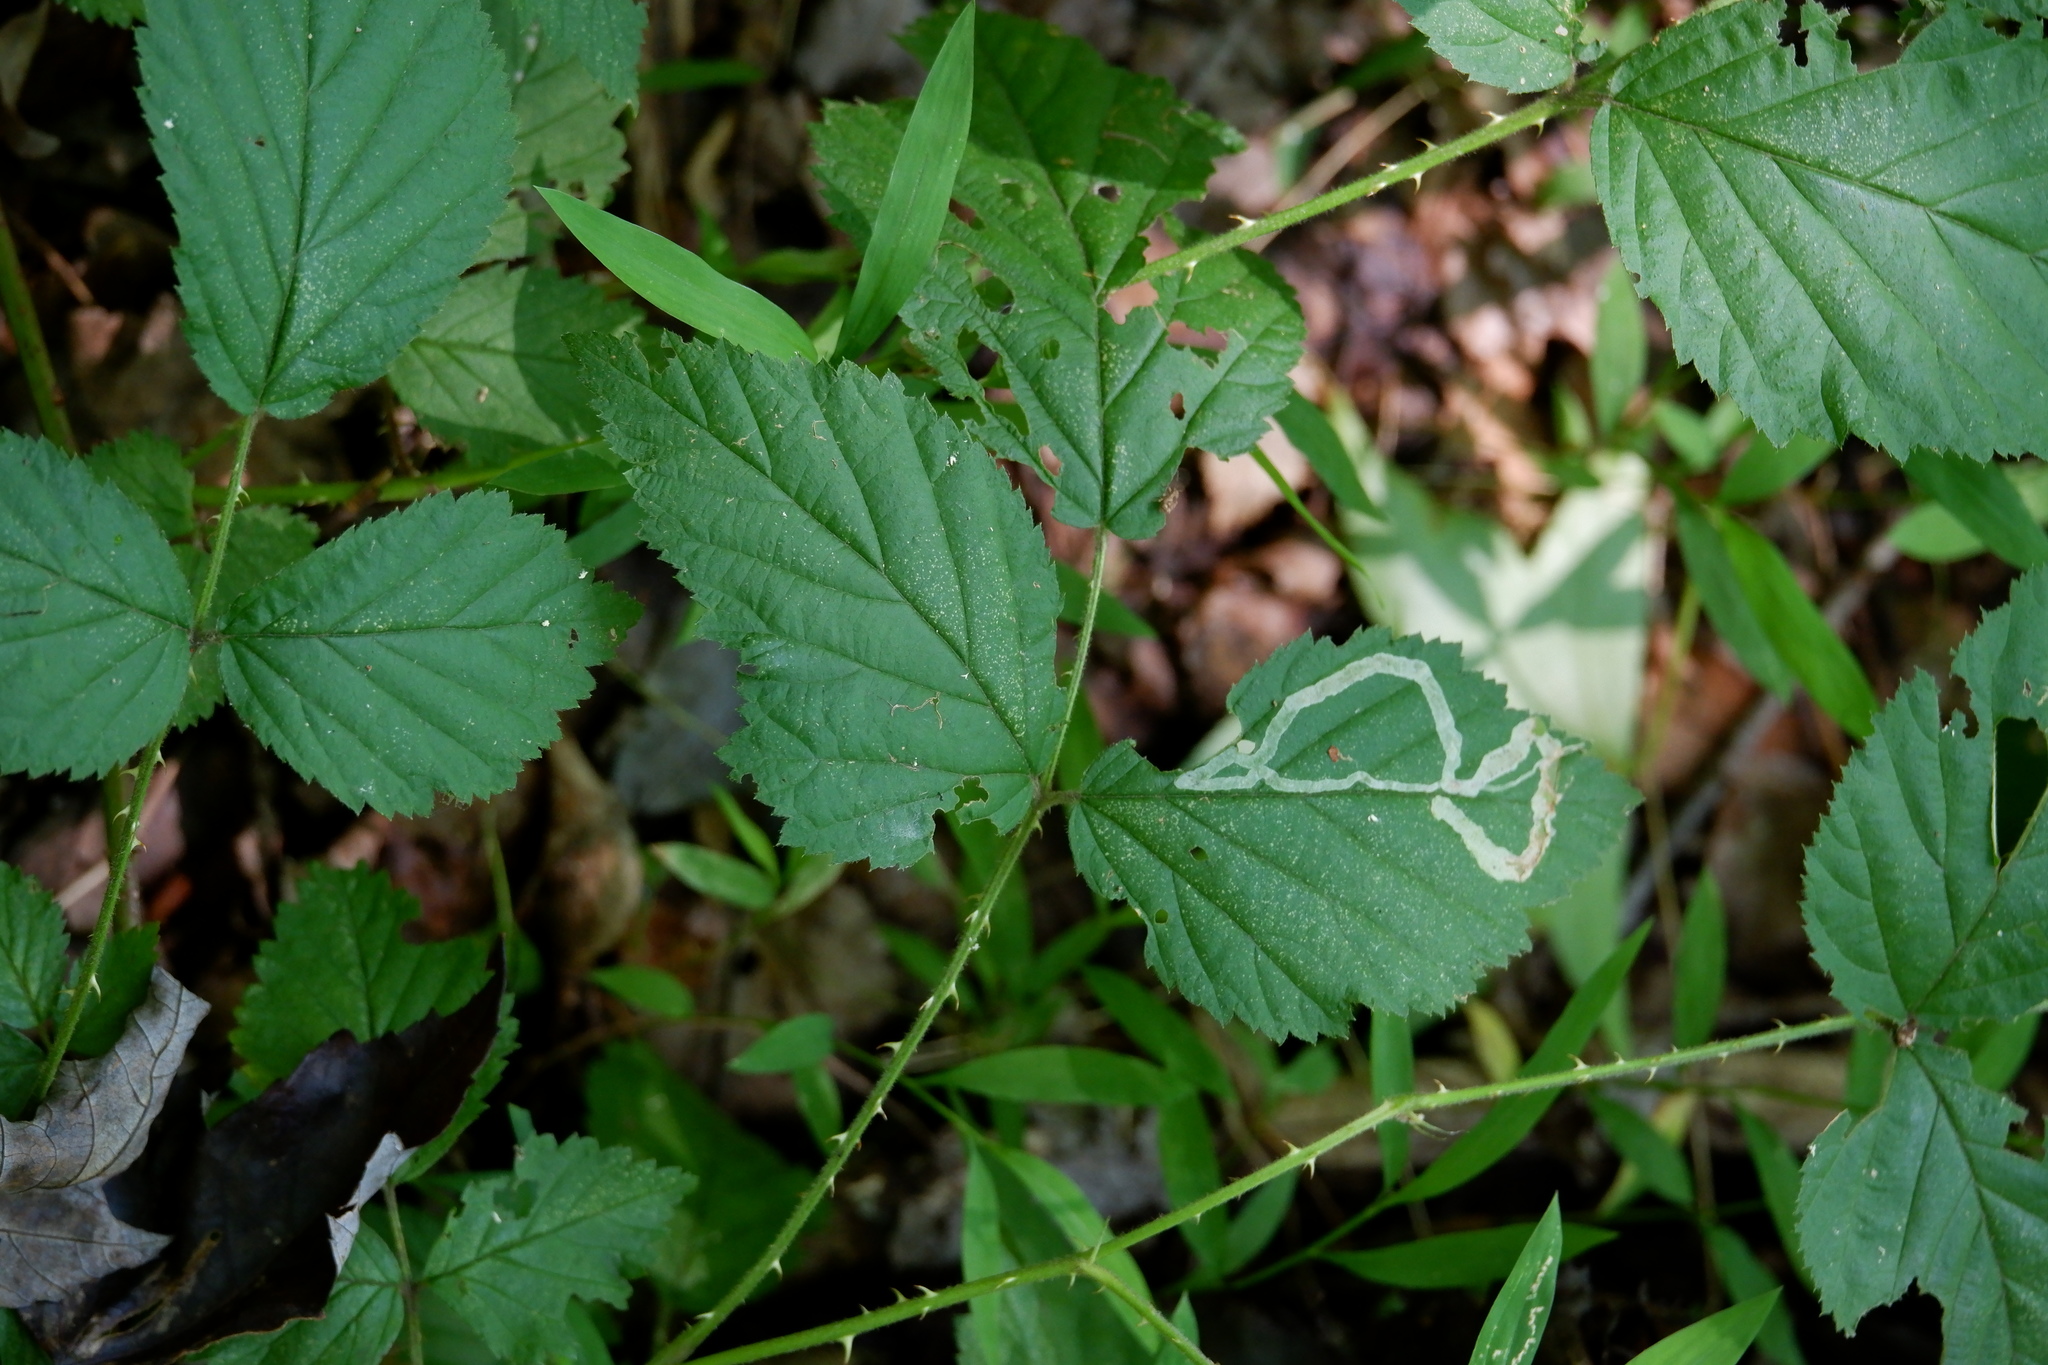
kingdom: Animalia
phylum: Arthropoda
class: Insecta
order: Diptera
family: Agromyzidae
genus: Agromyza
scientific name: Agromyza vockerothi
